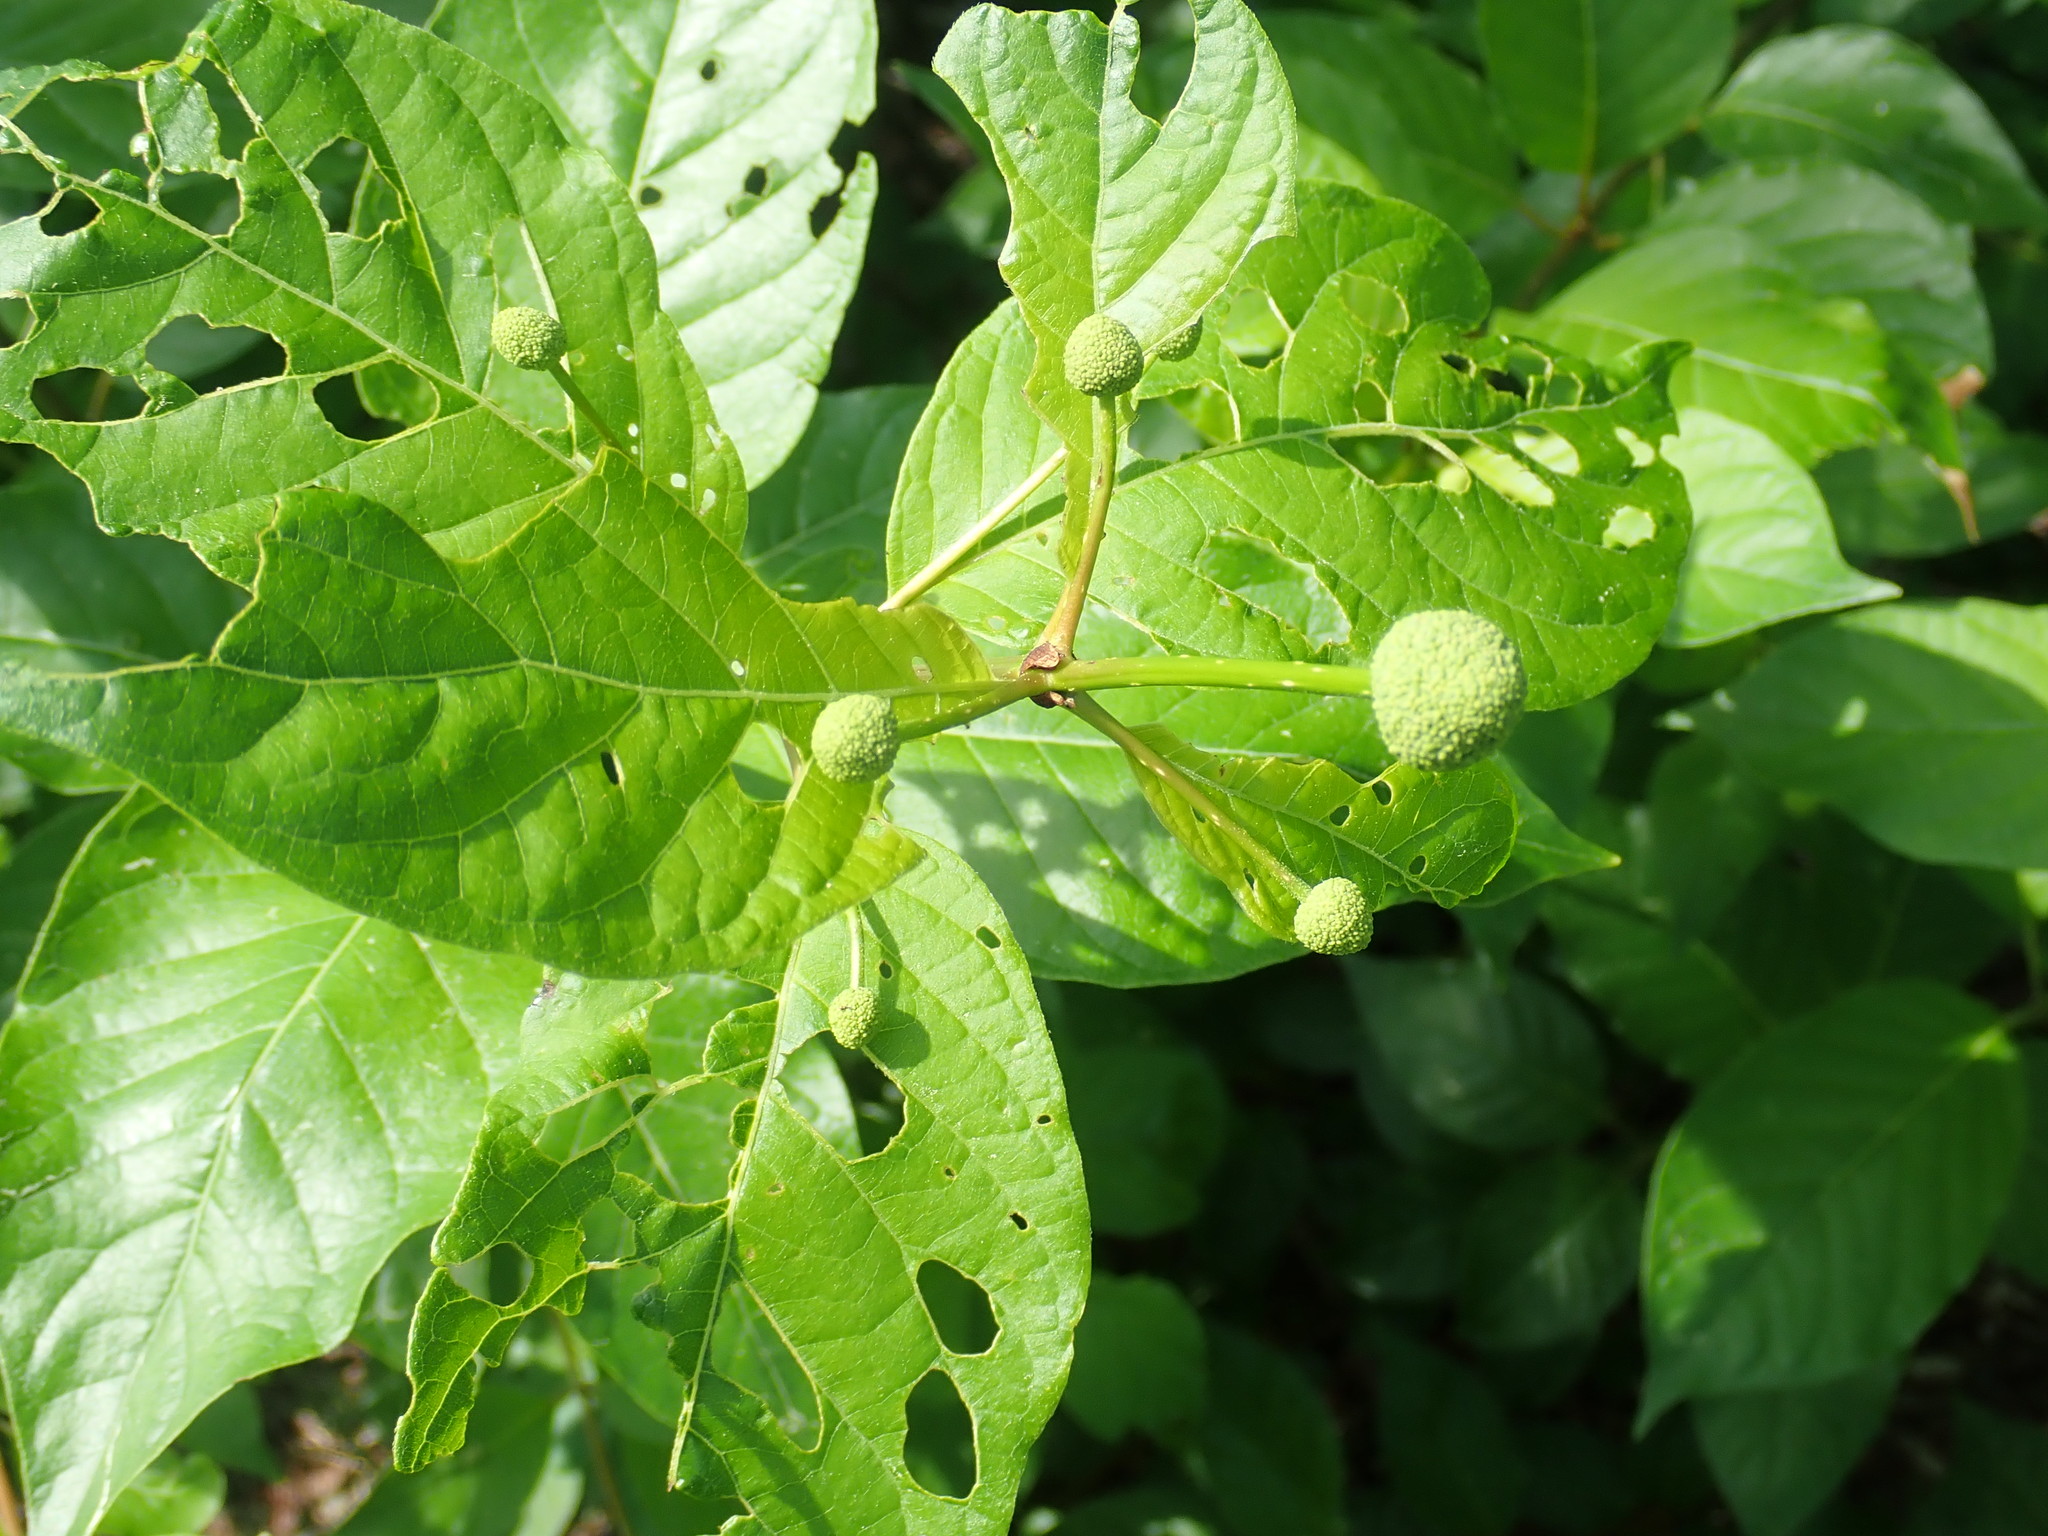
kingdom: Plantae
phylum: Tracheophyta
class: Magnoliopsida
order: Gentianales
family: Rubiaceae
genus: Cephalanthus
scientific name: Cephalanthus occidentalis
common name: Button-willow
